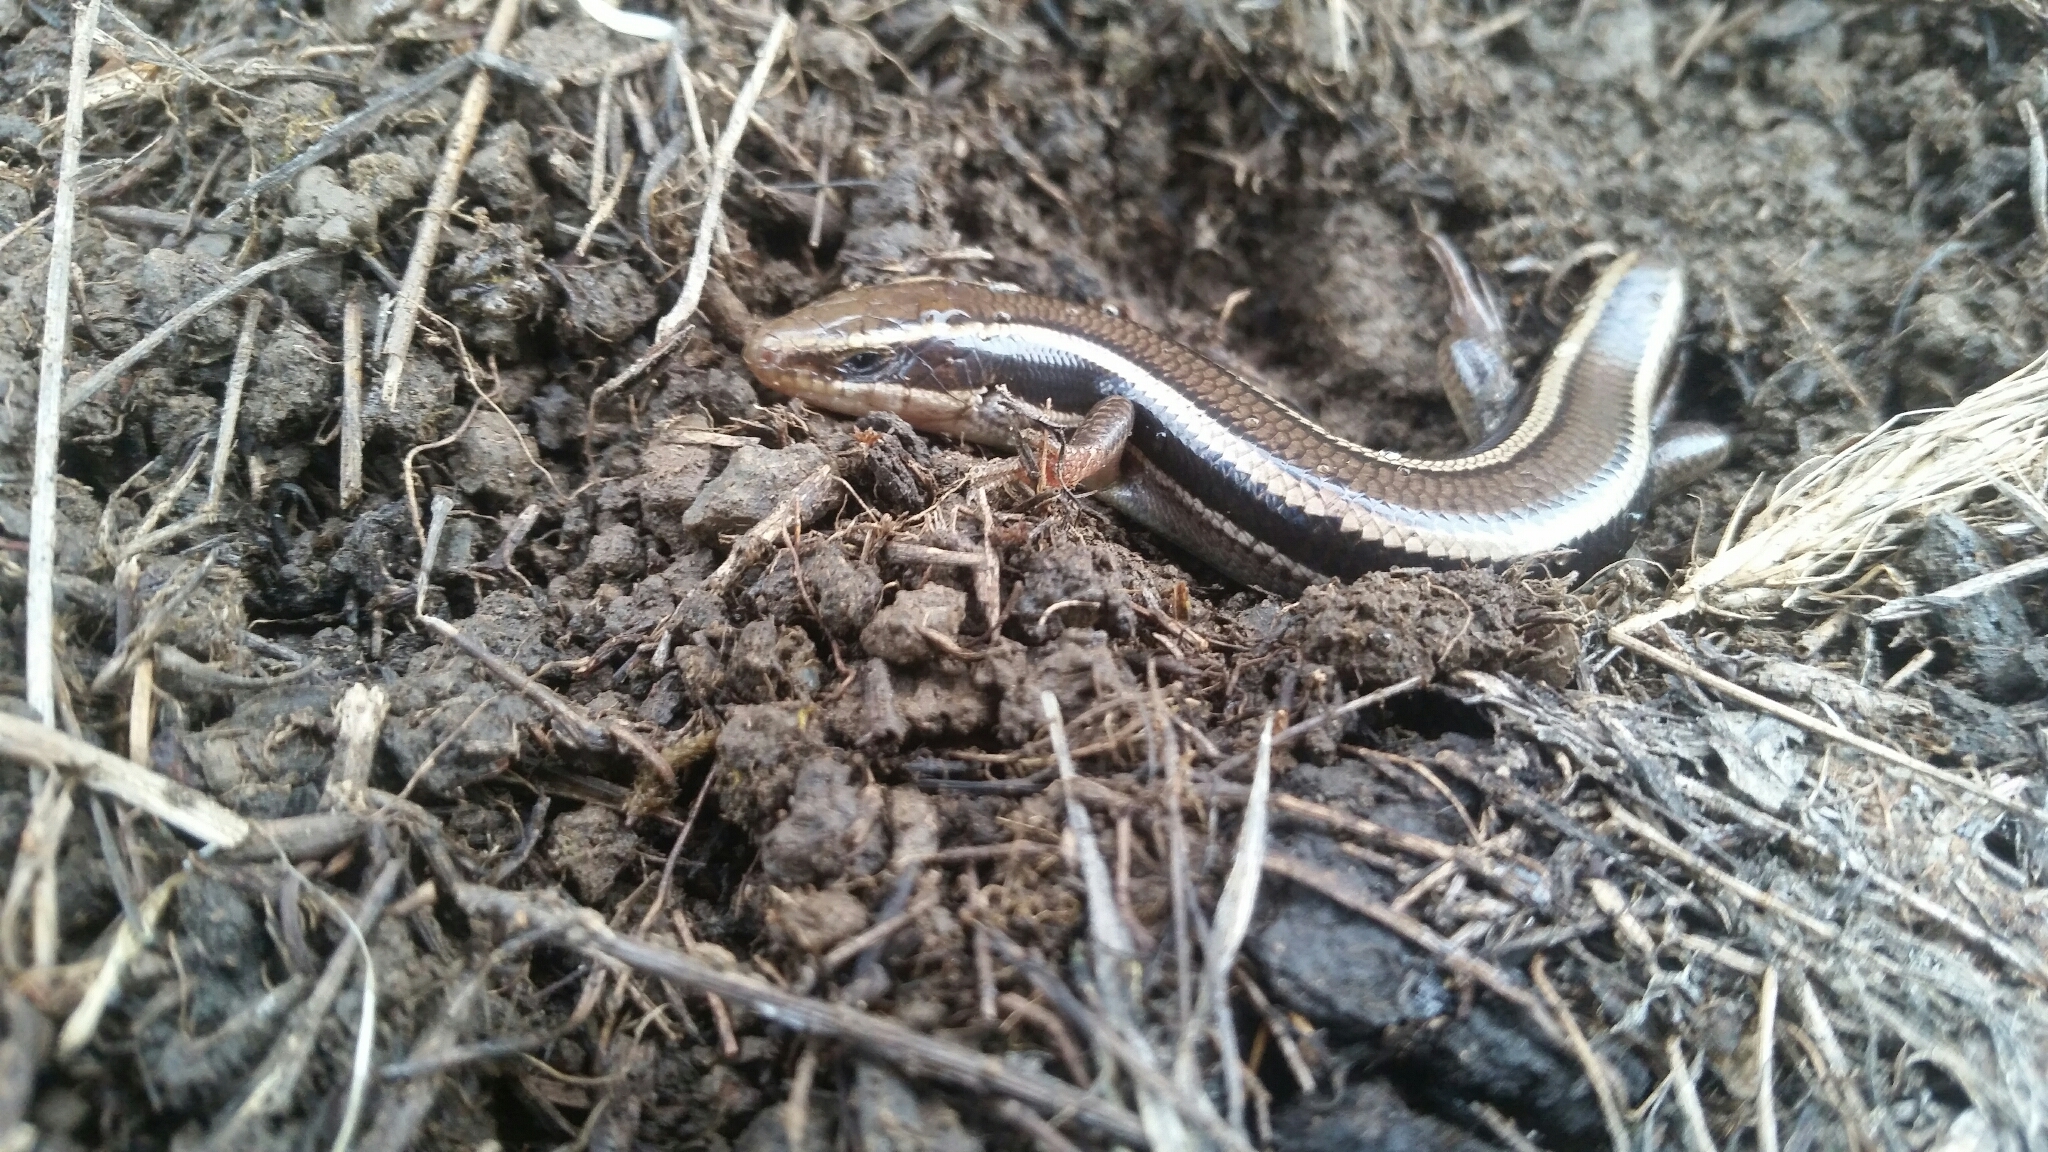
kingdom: Animalia
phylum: Chordata
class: Squamata
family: Scincidae
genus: Plestiodon
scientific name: Plestiodon skiltonianus
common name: Coronado island skink [interparietalis]
